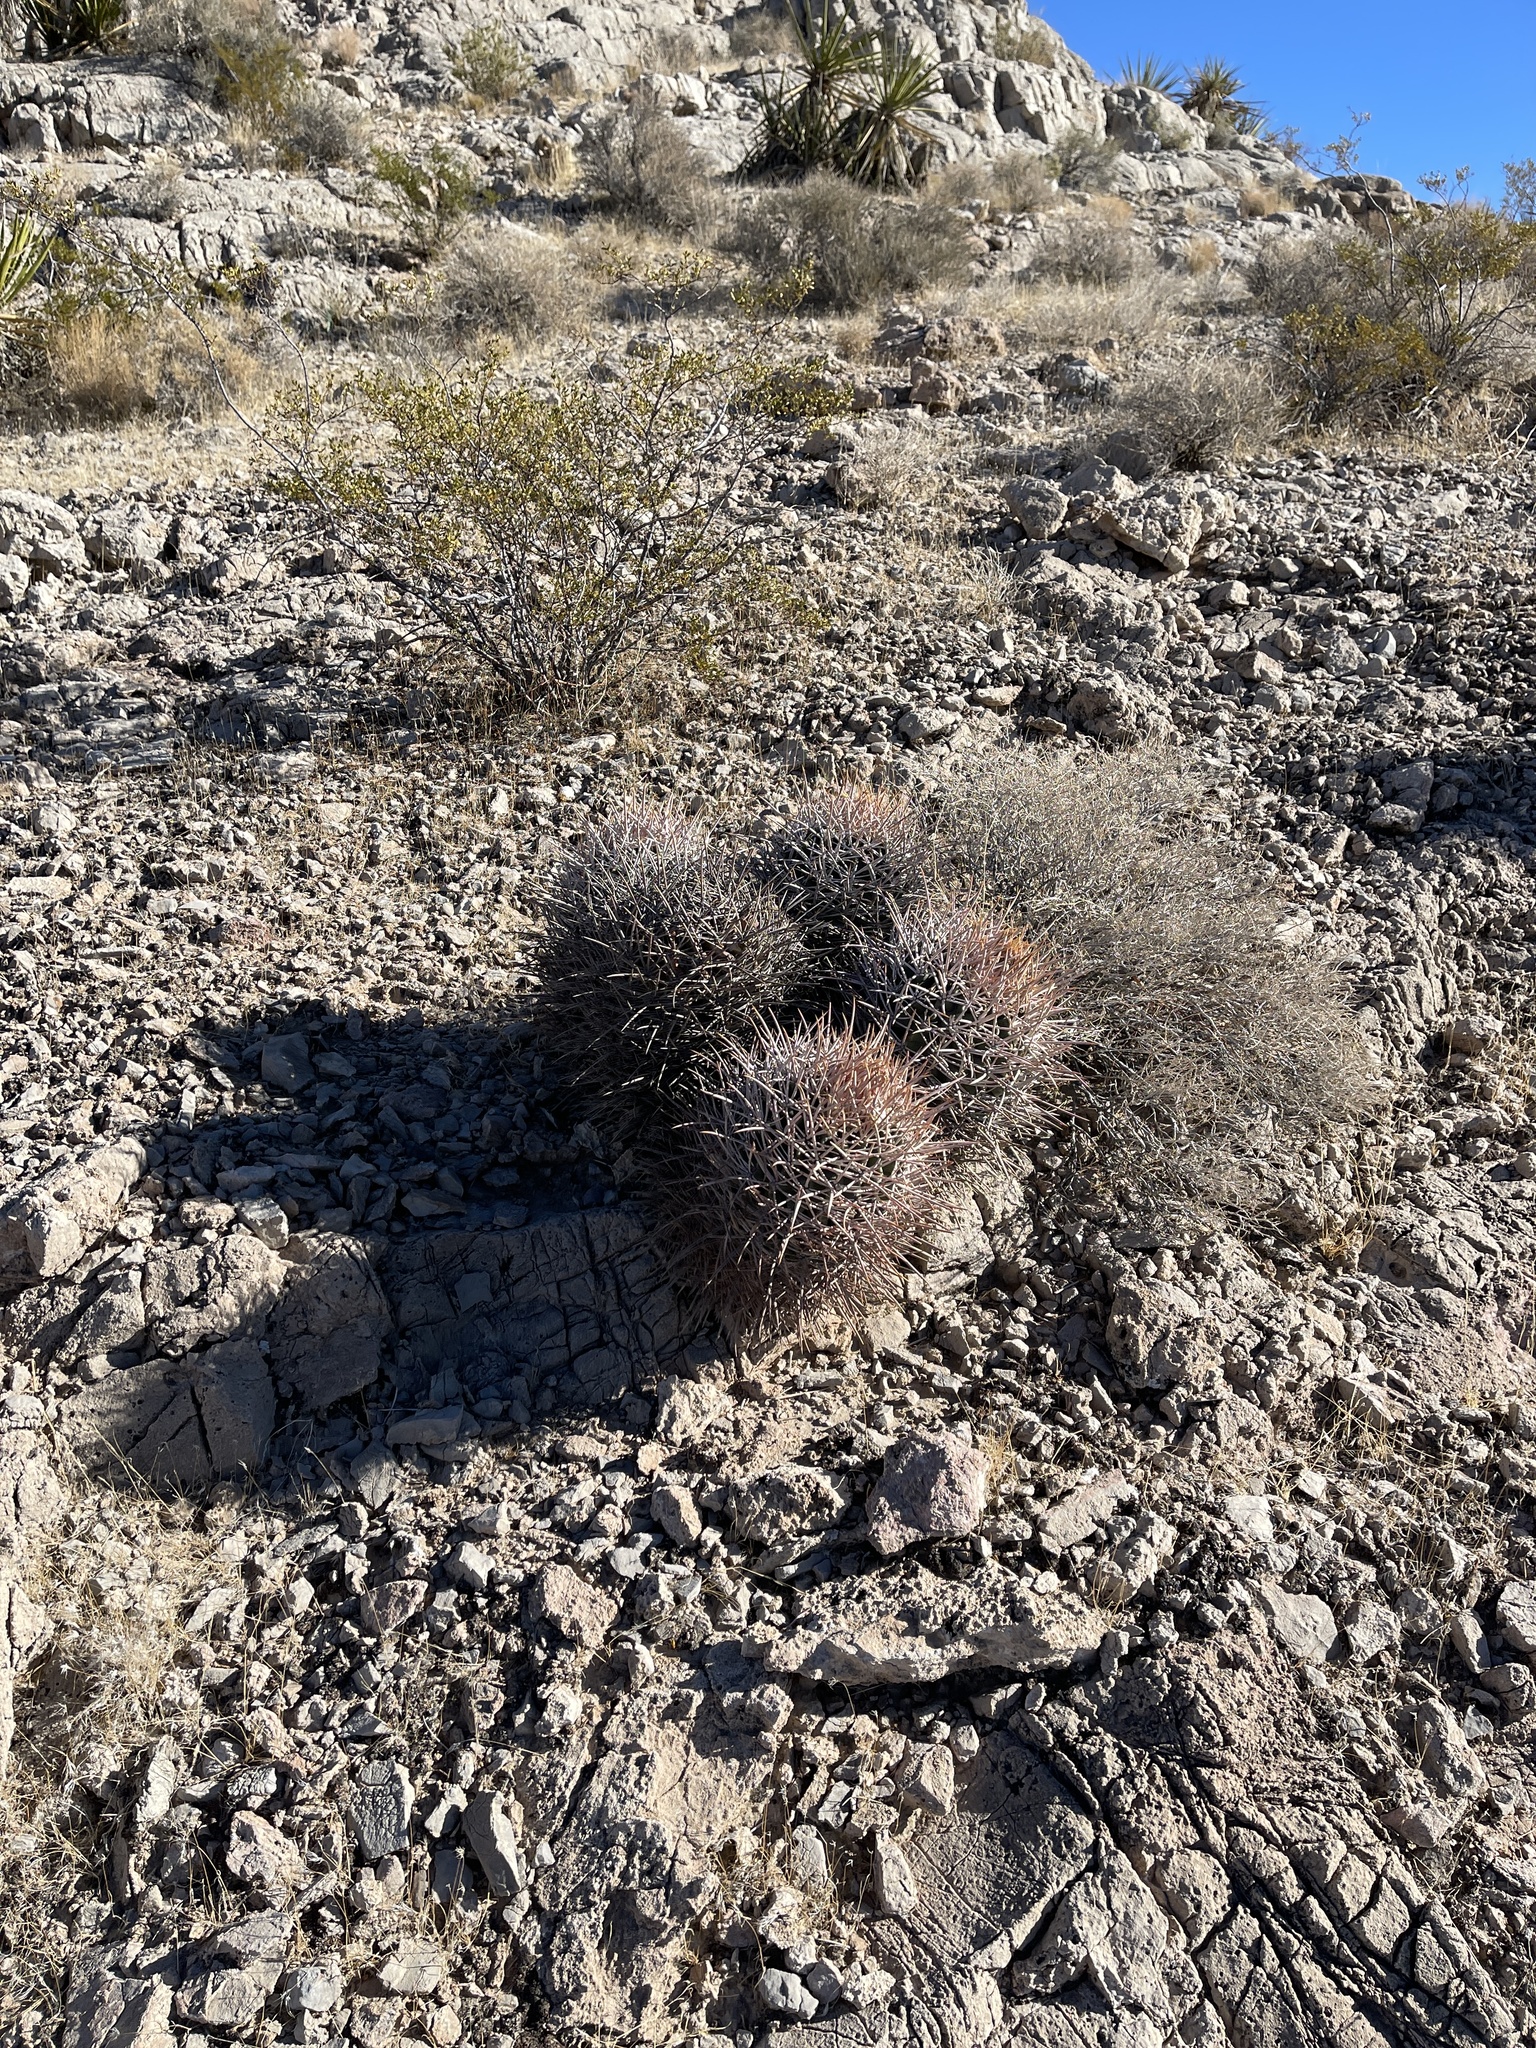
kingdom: Plantae
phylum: Tracheophyta
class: Magnoliopsida
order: Caryophyllales
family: Cactaceae
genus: Echinocactus
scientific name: Echinocactus polycephalus
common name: Cottontop cactus
